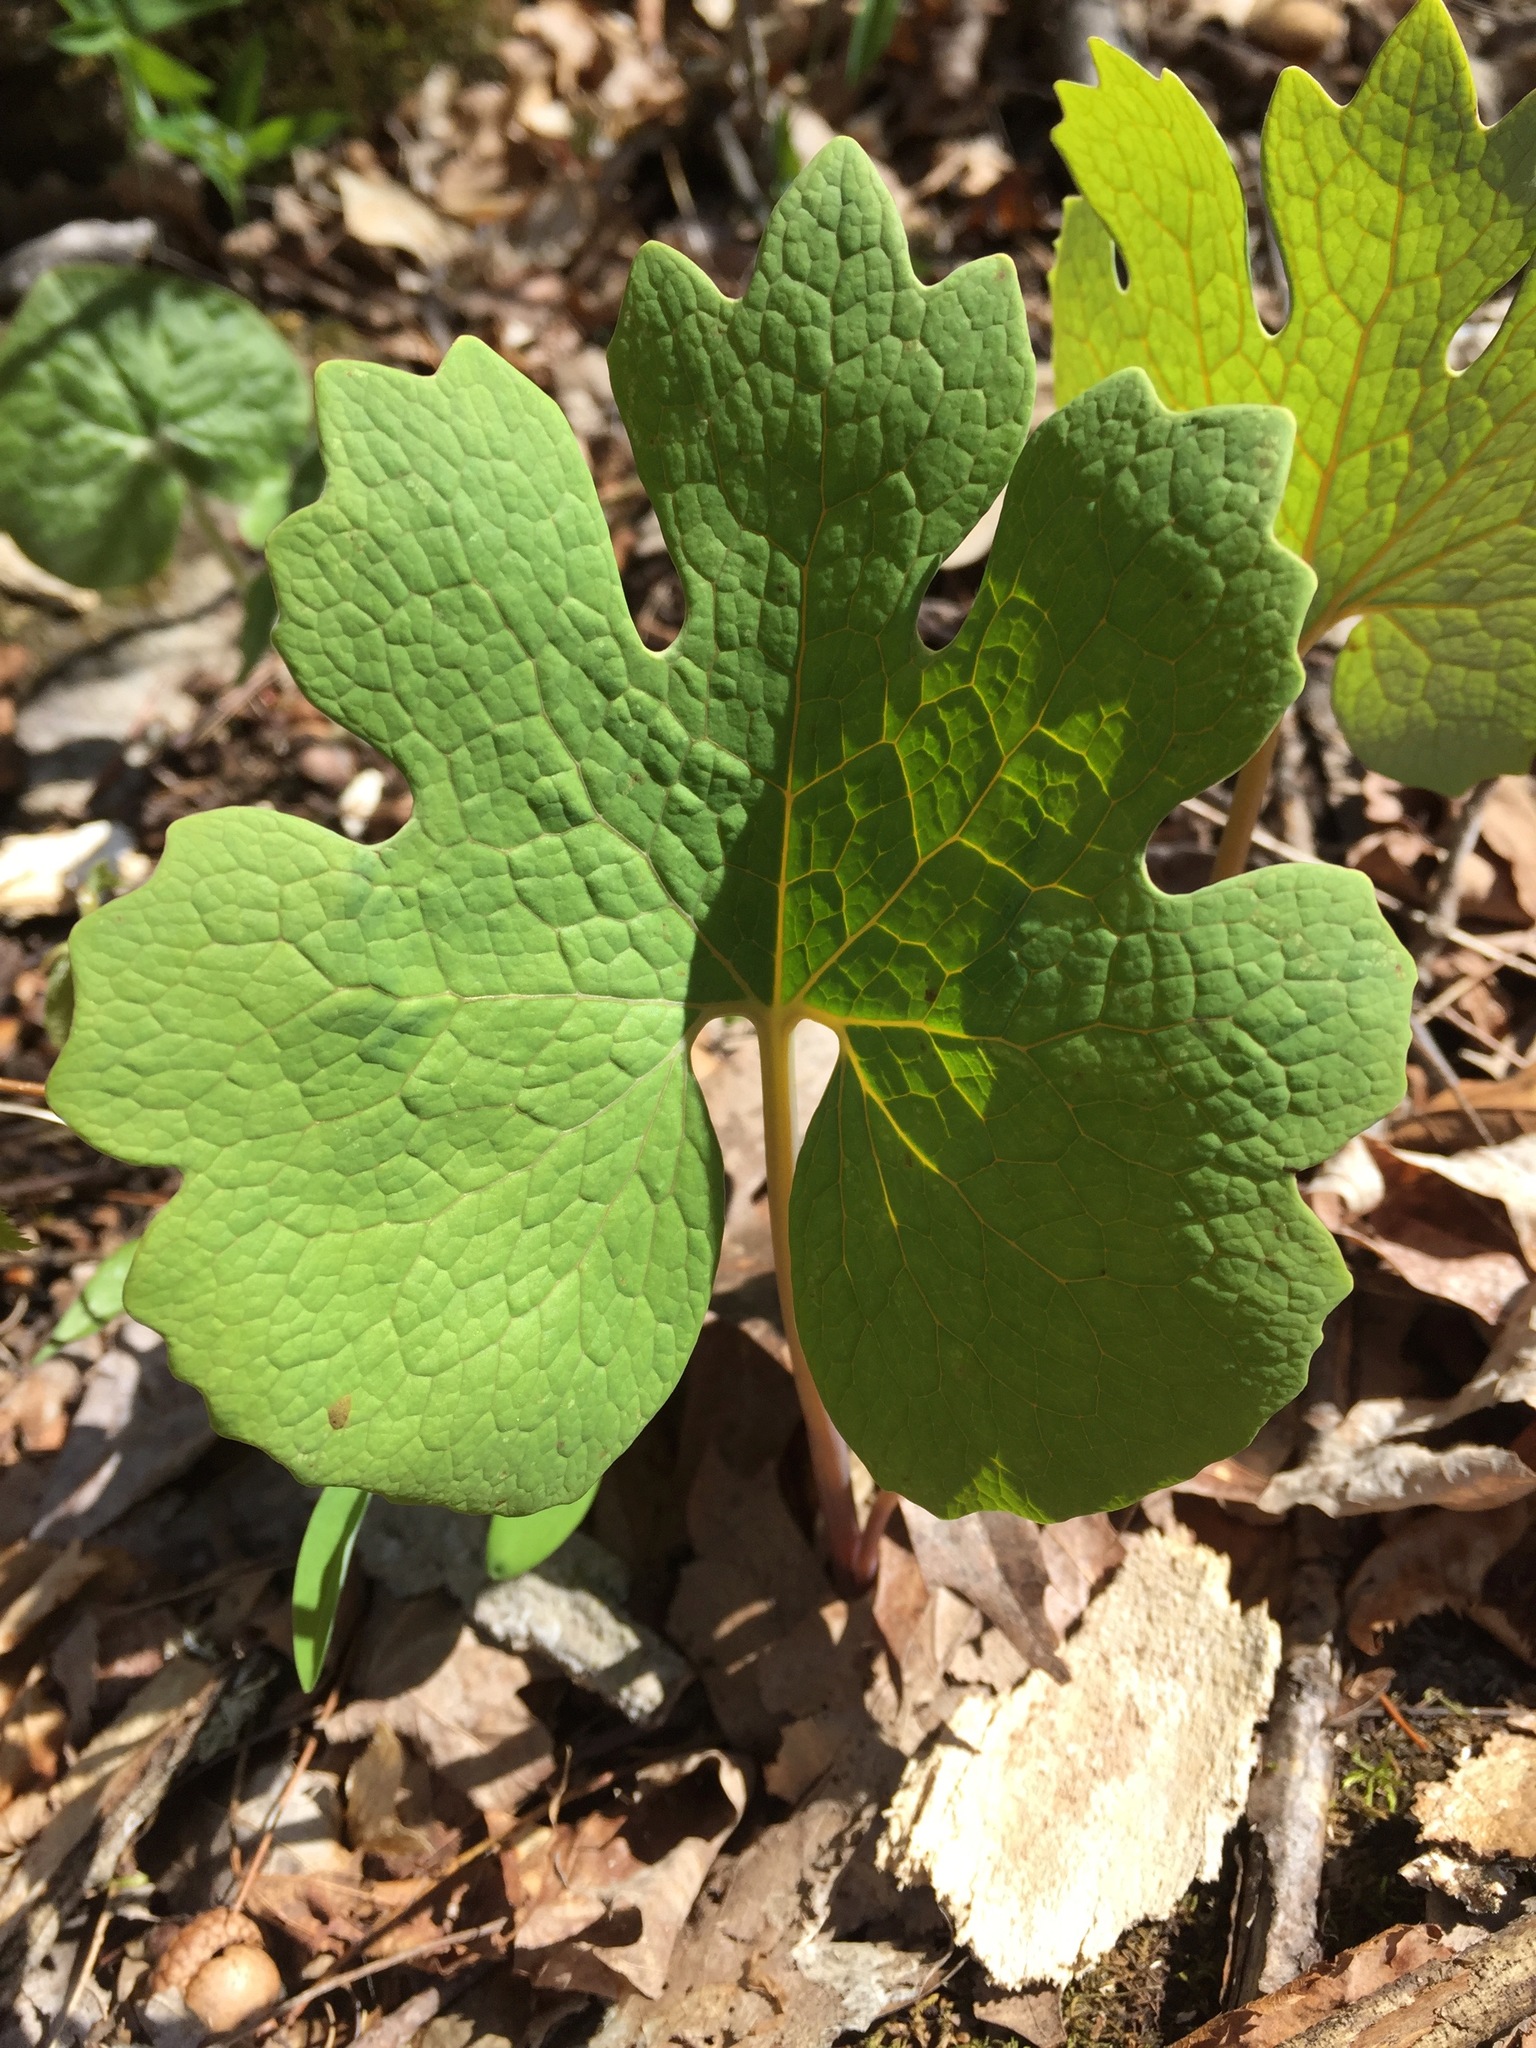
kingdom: Plantae
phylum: Tracheophyta
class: Magnoliopsida
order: Ranunculales
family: Papaveraceae
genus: Sanguinaria
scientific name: Sanguinaria canadensis
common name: Bloodroot
